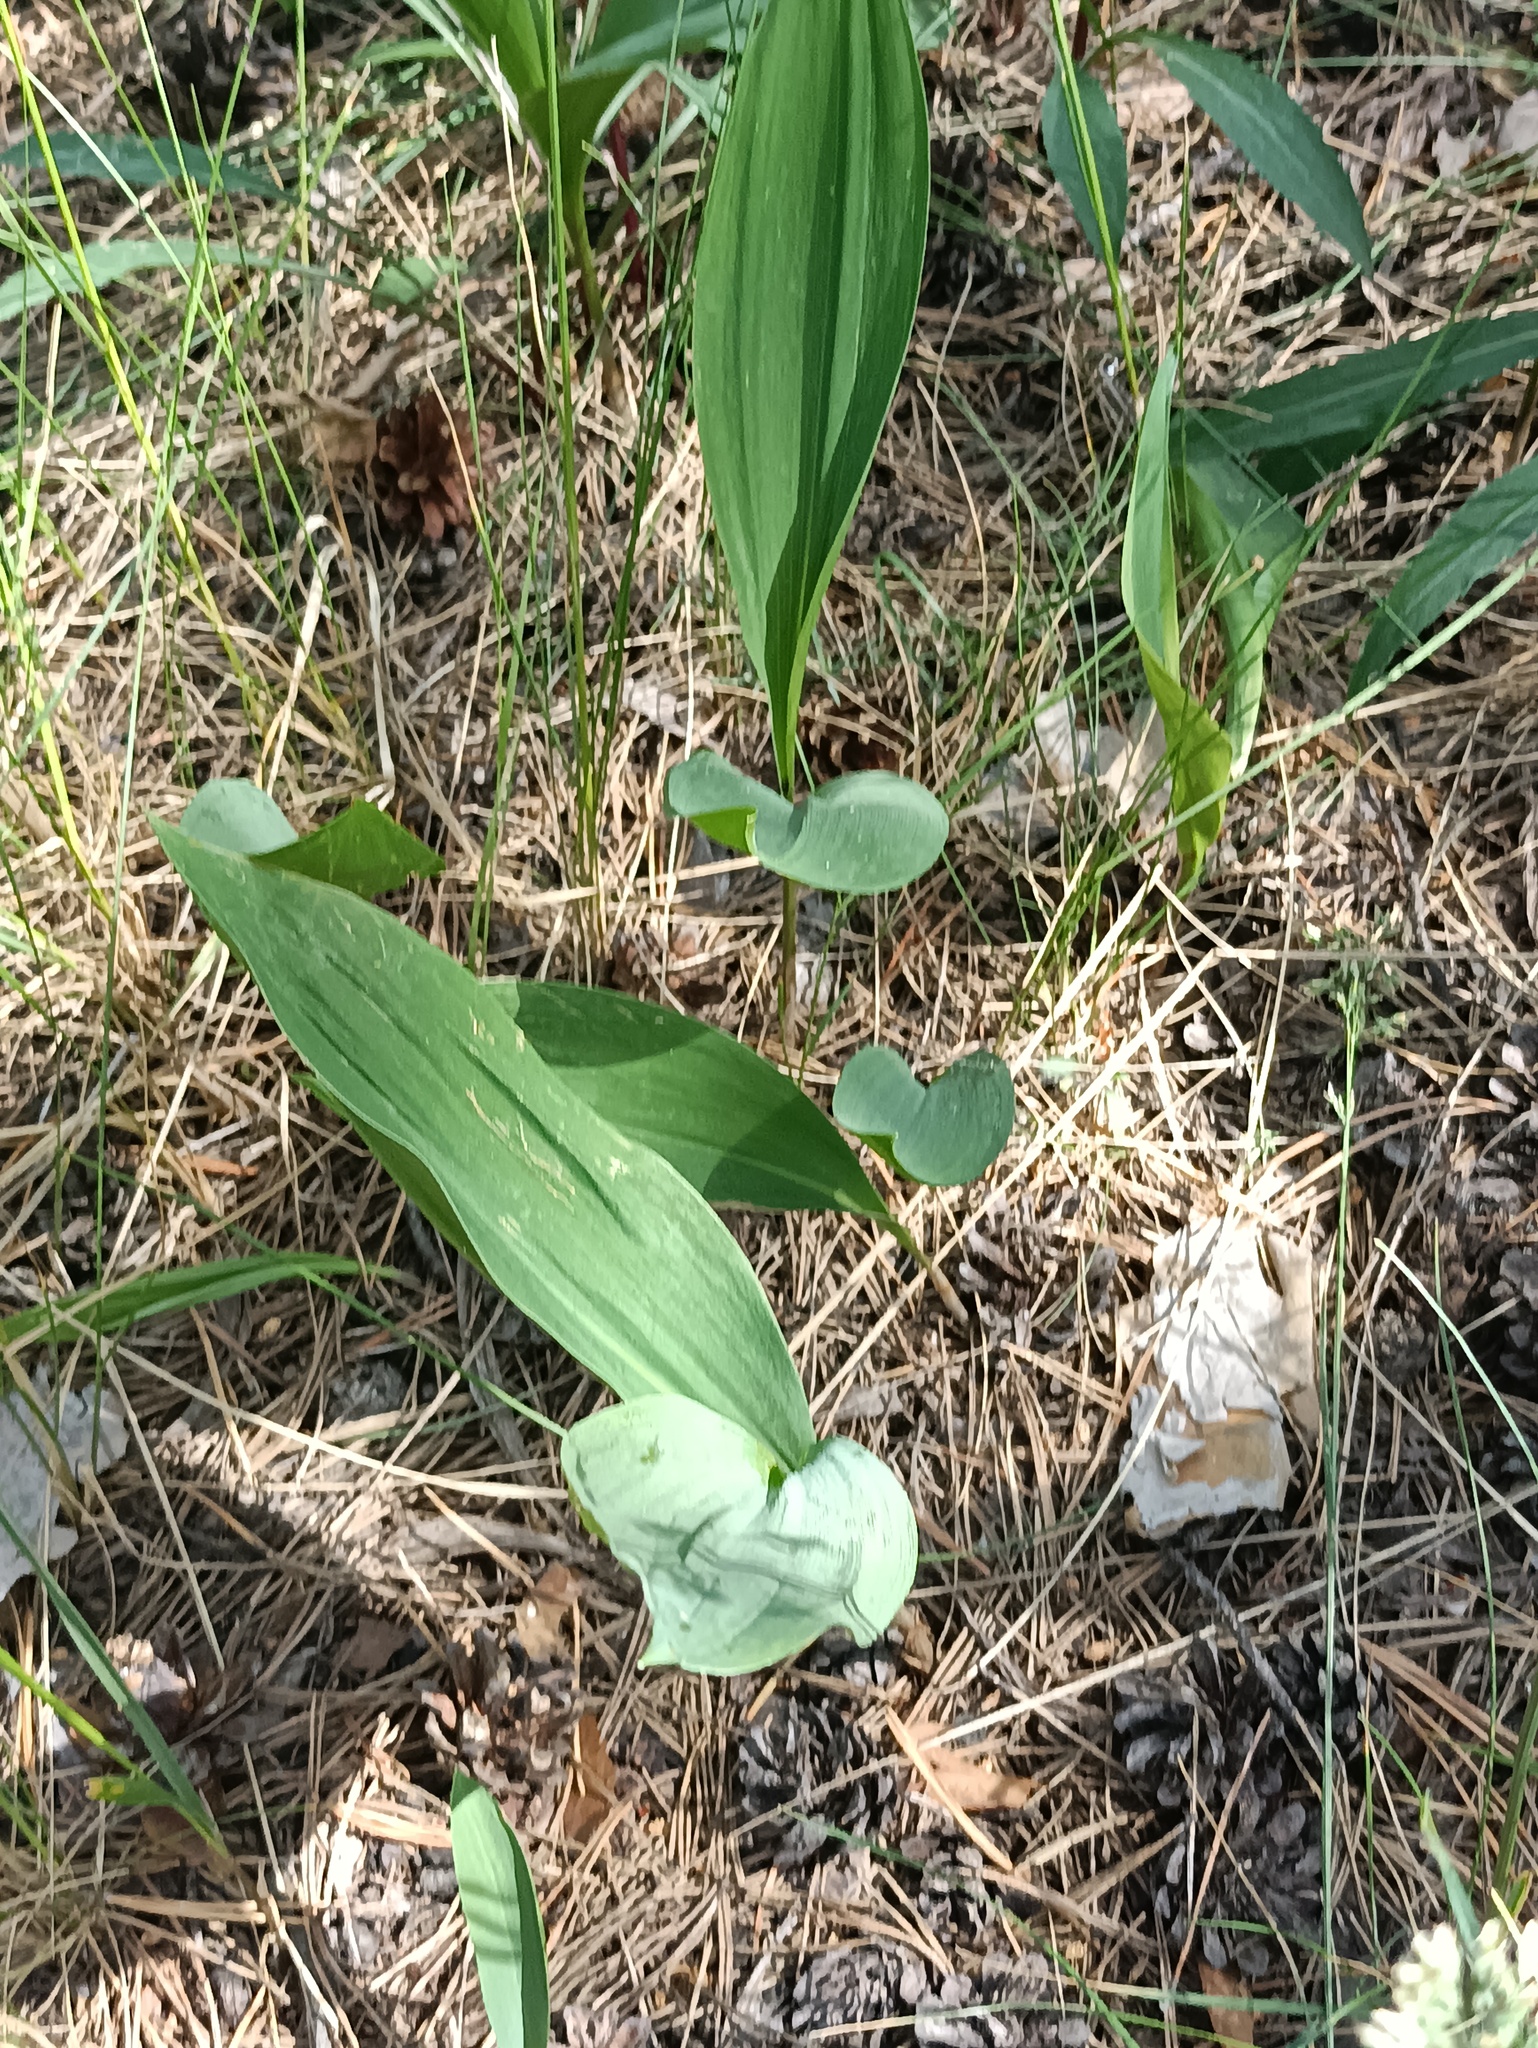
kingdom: Plantae
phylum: Tracheophyta
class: Liliopsida
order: Asparagales
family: Asparagaceae
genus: Convallaria
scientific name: Convallaria majalis
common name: Lily-of-the-valley
